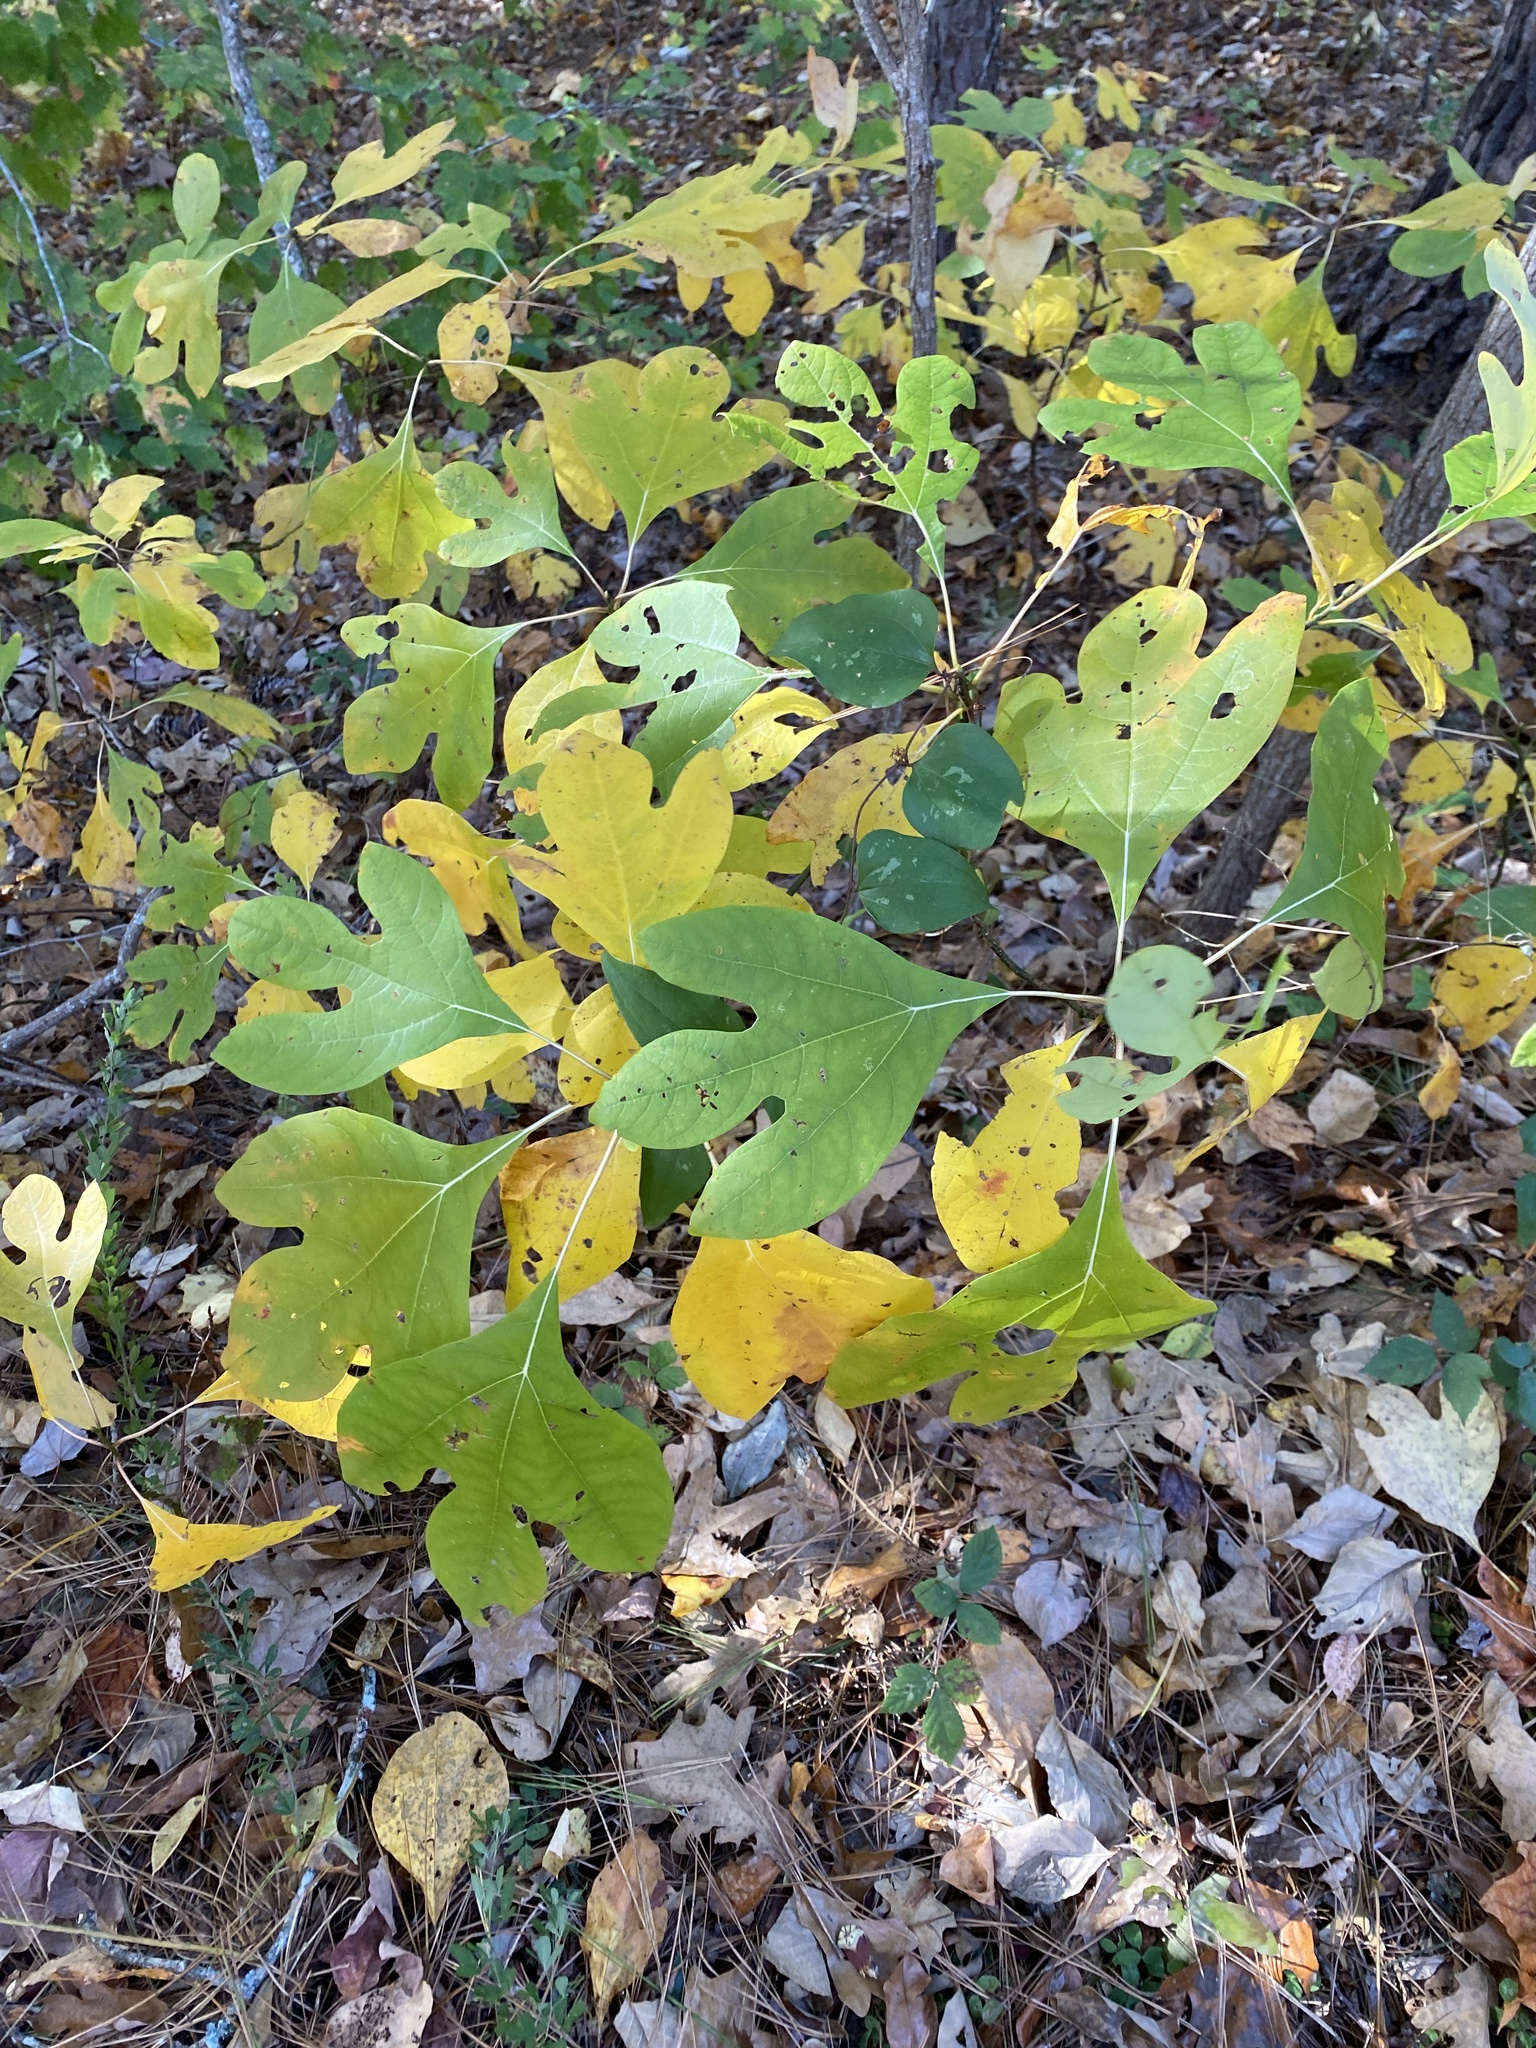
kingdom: Plantae
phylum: Tracheophyta
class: Magnoliopsida
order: Laurales
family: Lauraceae
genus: Sassafras
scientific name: Sassafras albidum
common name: Sassafras
